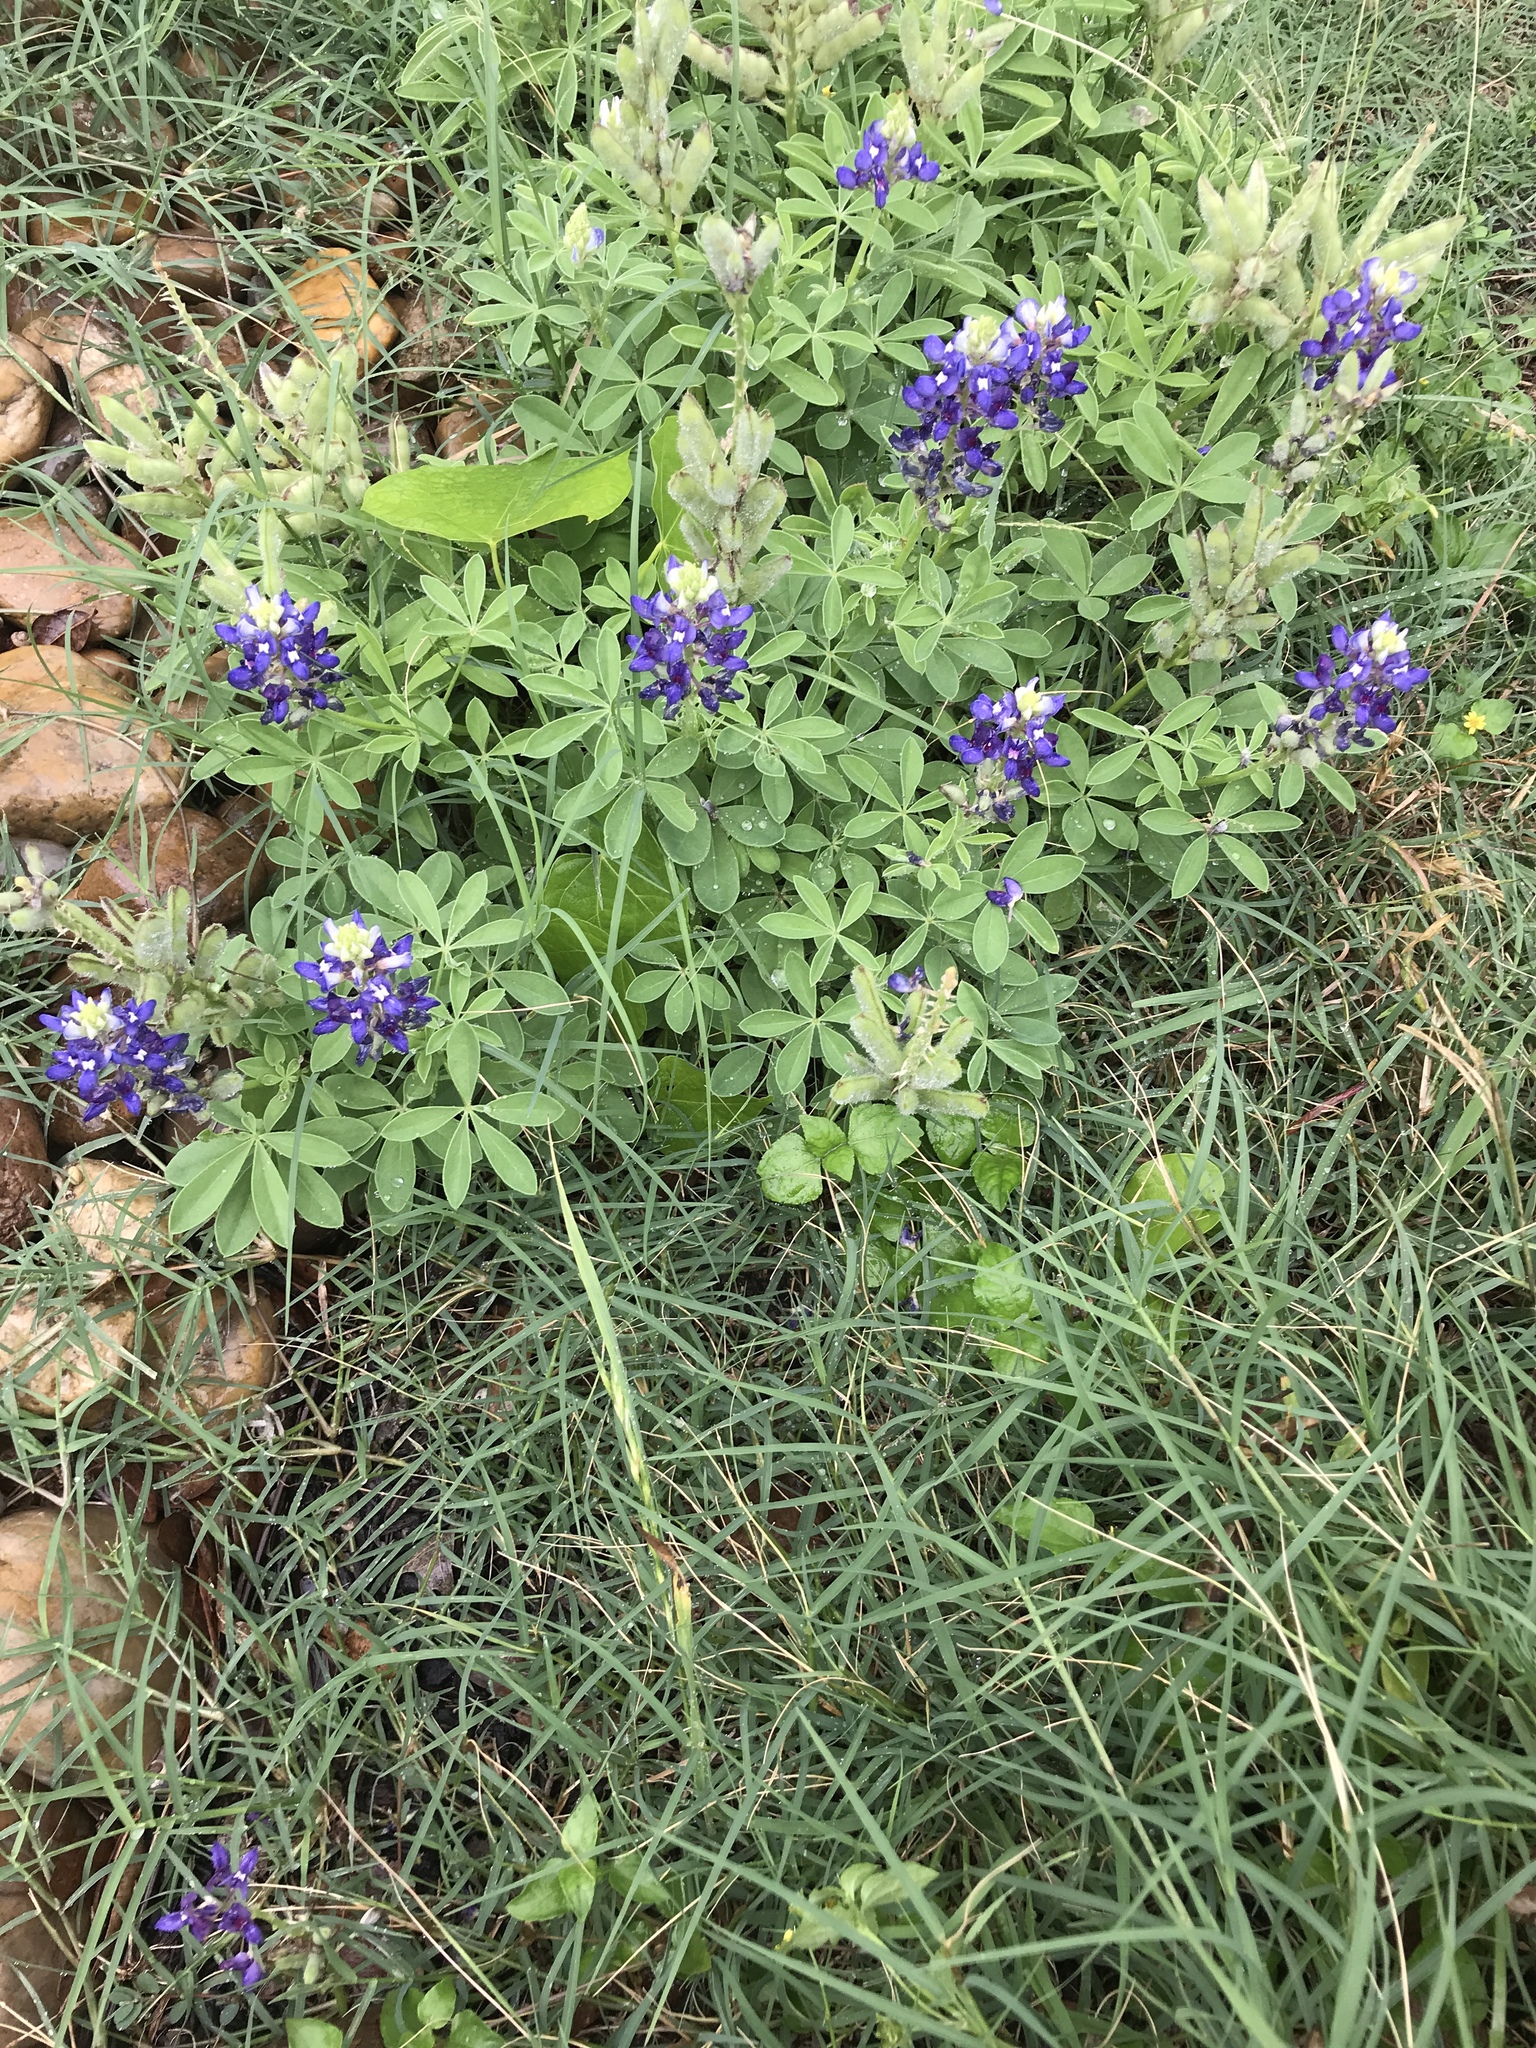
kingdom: Plantae
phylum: Tracheophyta
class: Magnoliopsida
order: Fabales
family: Fabaceae
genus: Lupinus
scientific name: Lupinus texensis
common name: Texas bluebonnet
